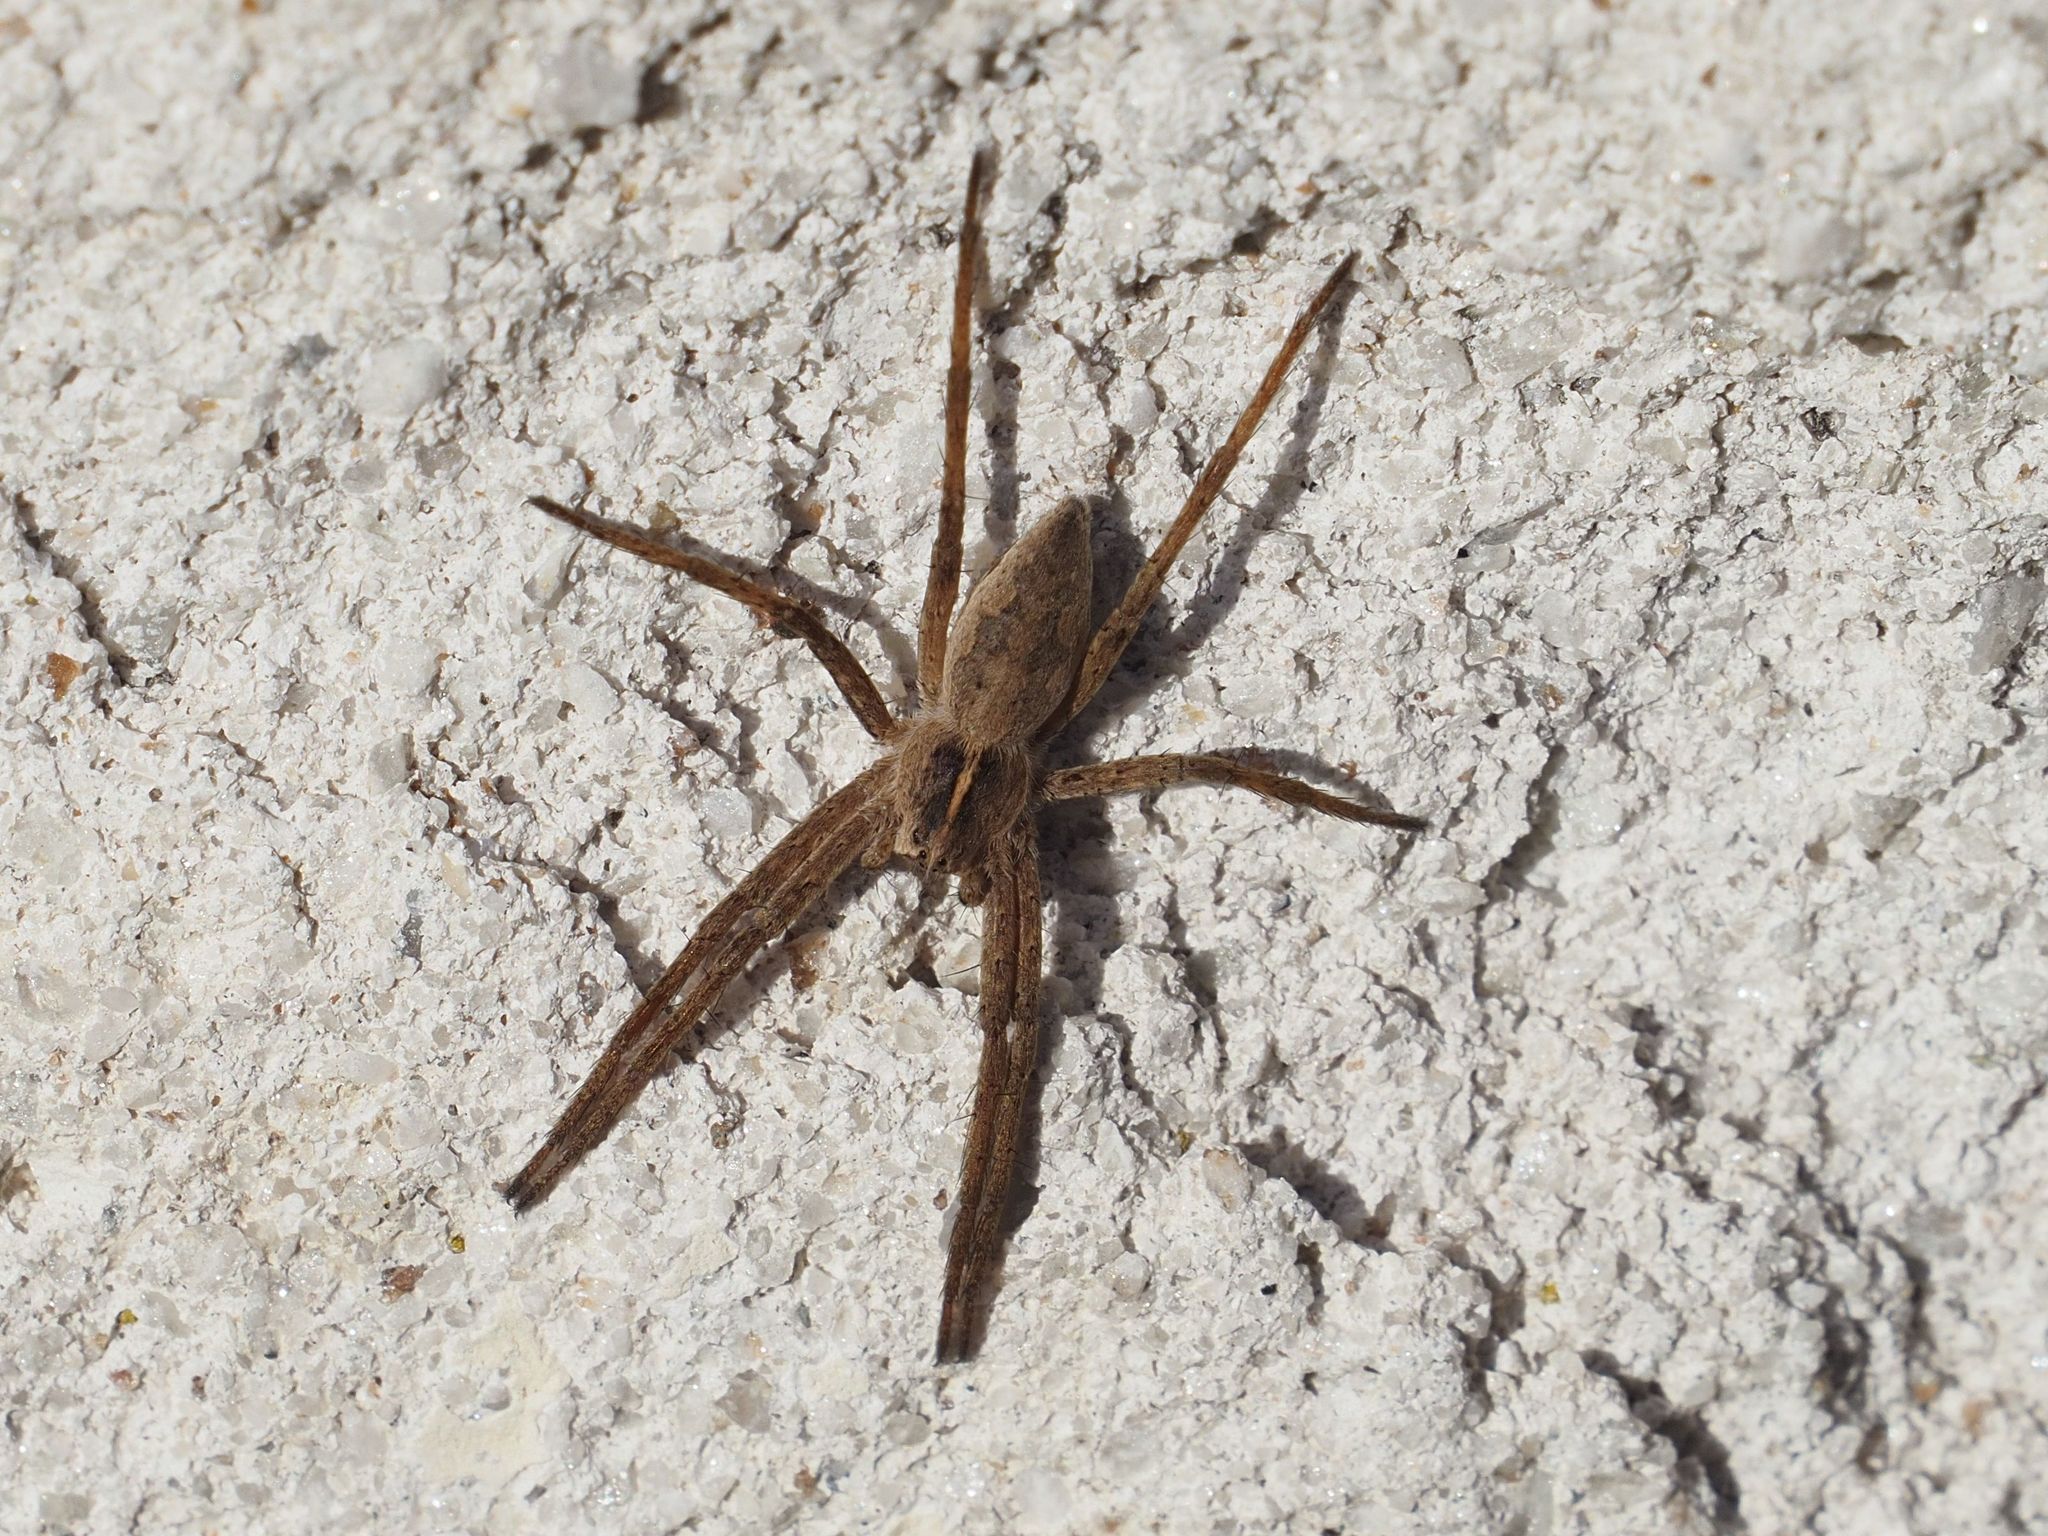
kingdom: Animalia
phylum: Arthropoda
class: Arachnida
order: Araneae
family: Pisauridae
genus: Pisaura
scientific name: Pisaura mirabilis
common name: Tent spider
